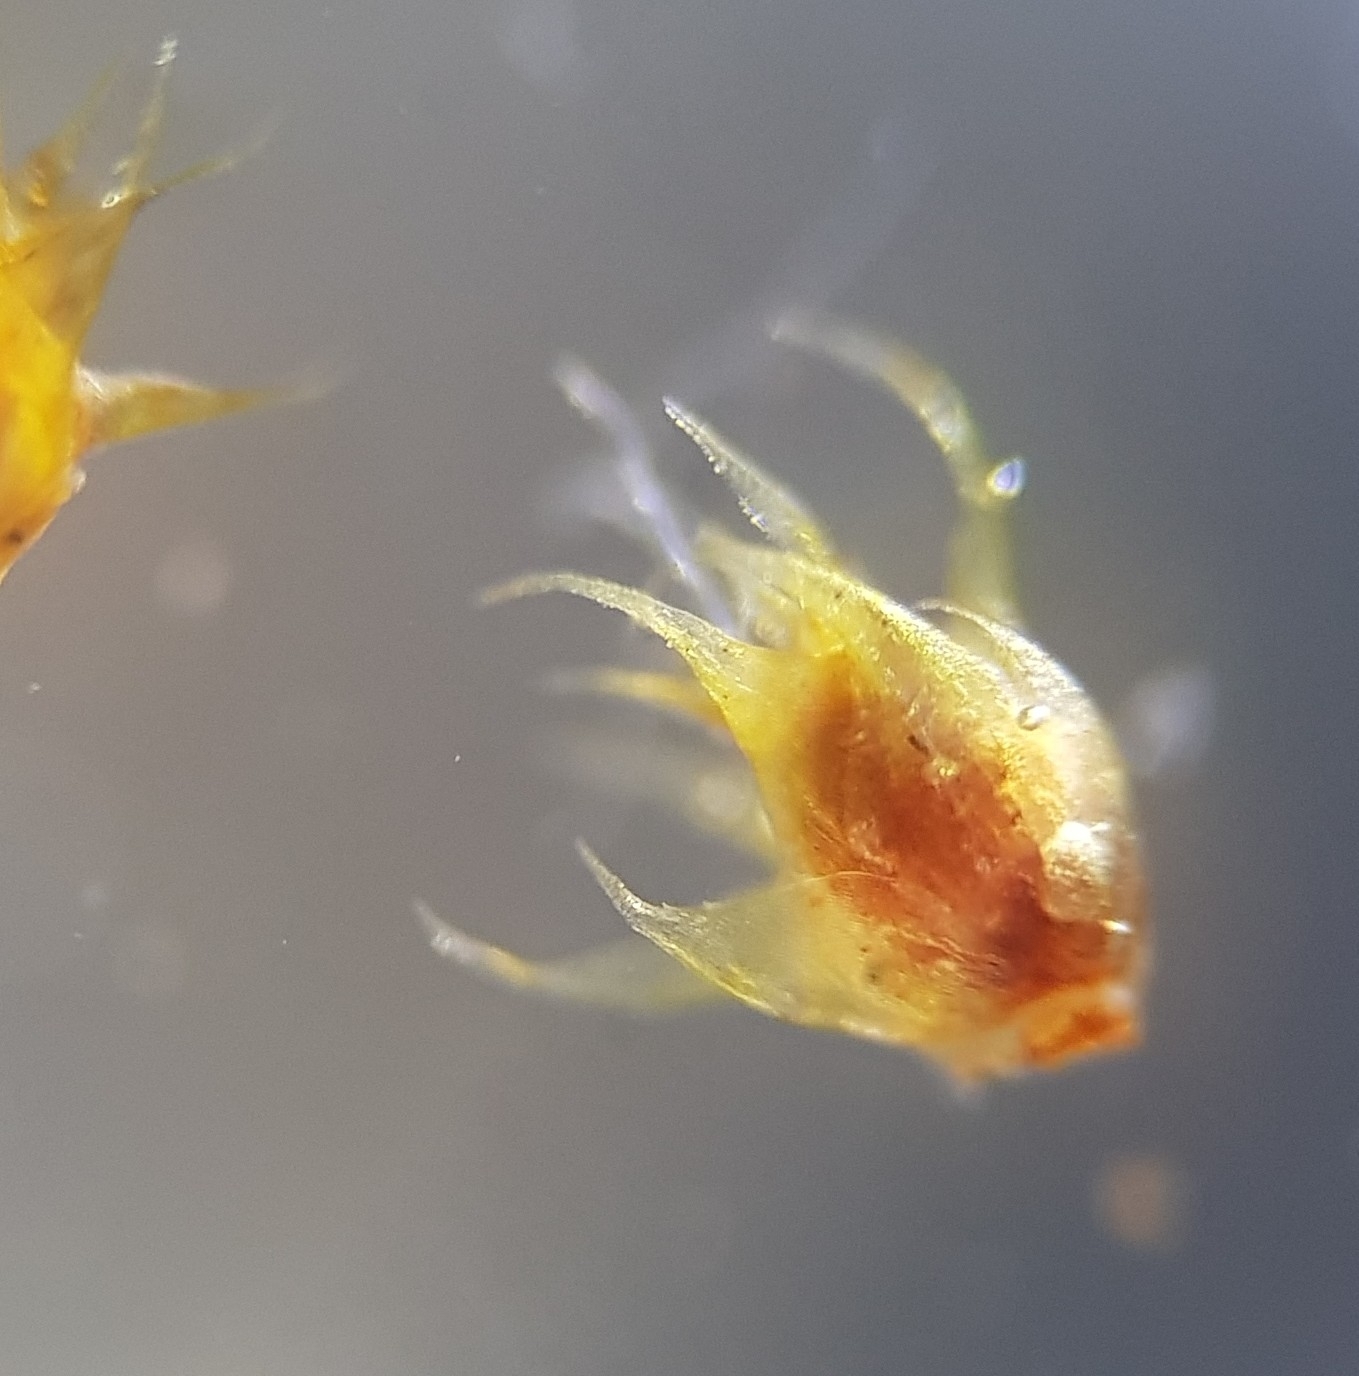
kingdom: Plantae
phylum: Bryophyta
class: Bryopsida
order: Hypnales
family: Hypnaceae
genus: Hypnum
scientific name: Hypnum cupressiforme
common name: Cypress-leaved plait-moss
